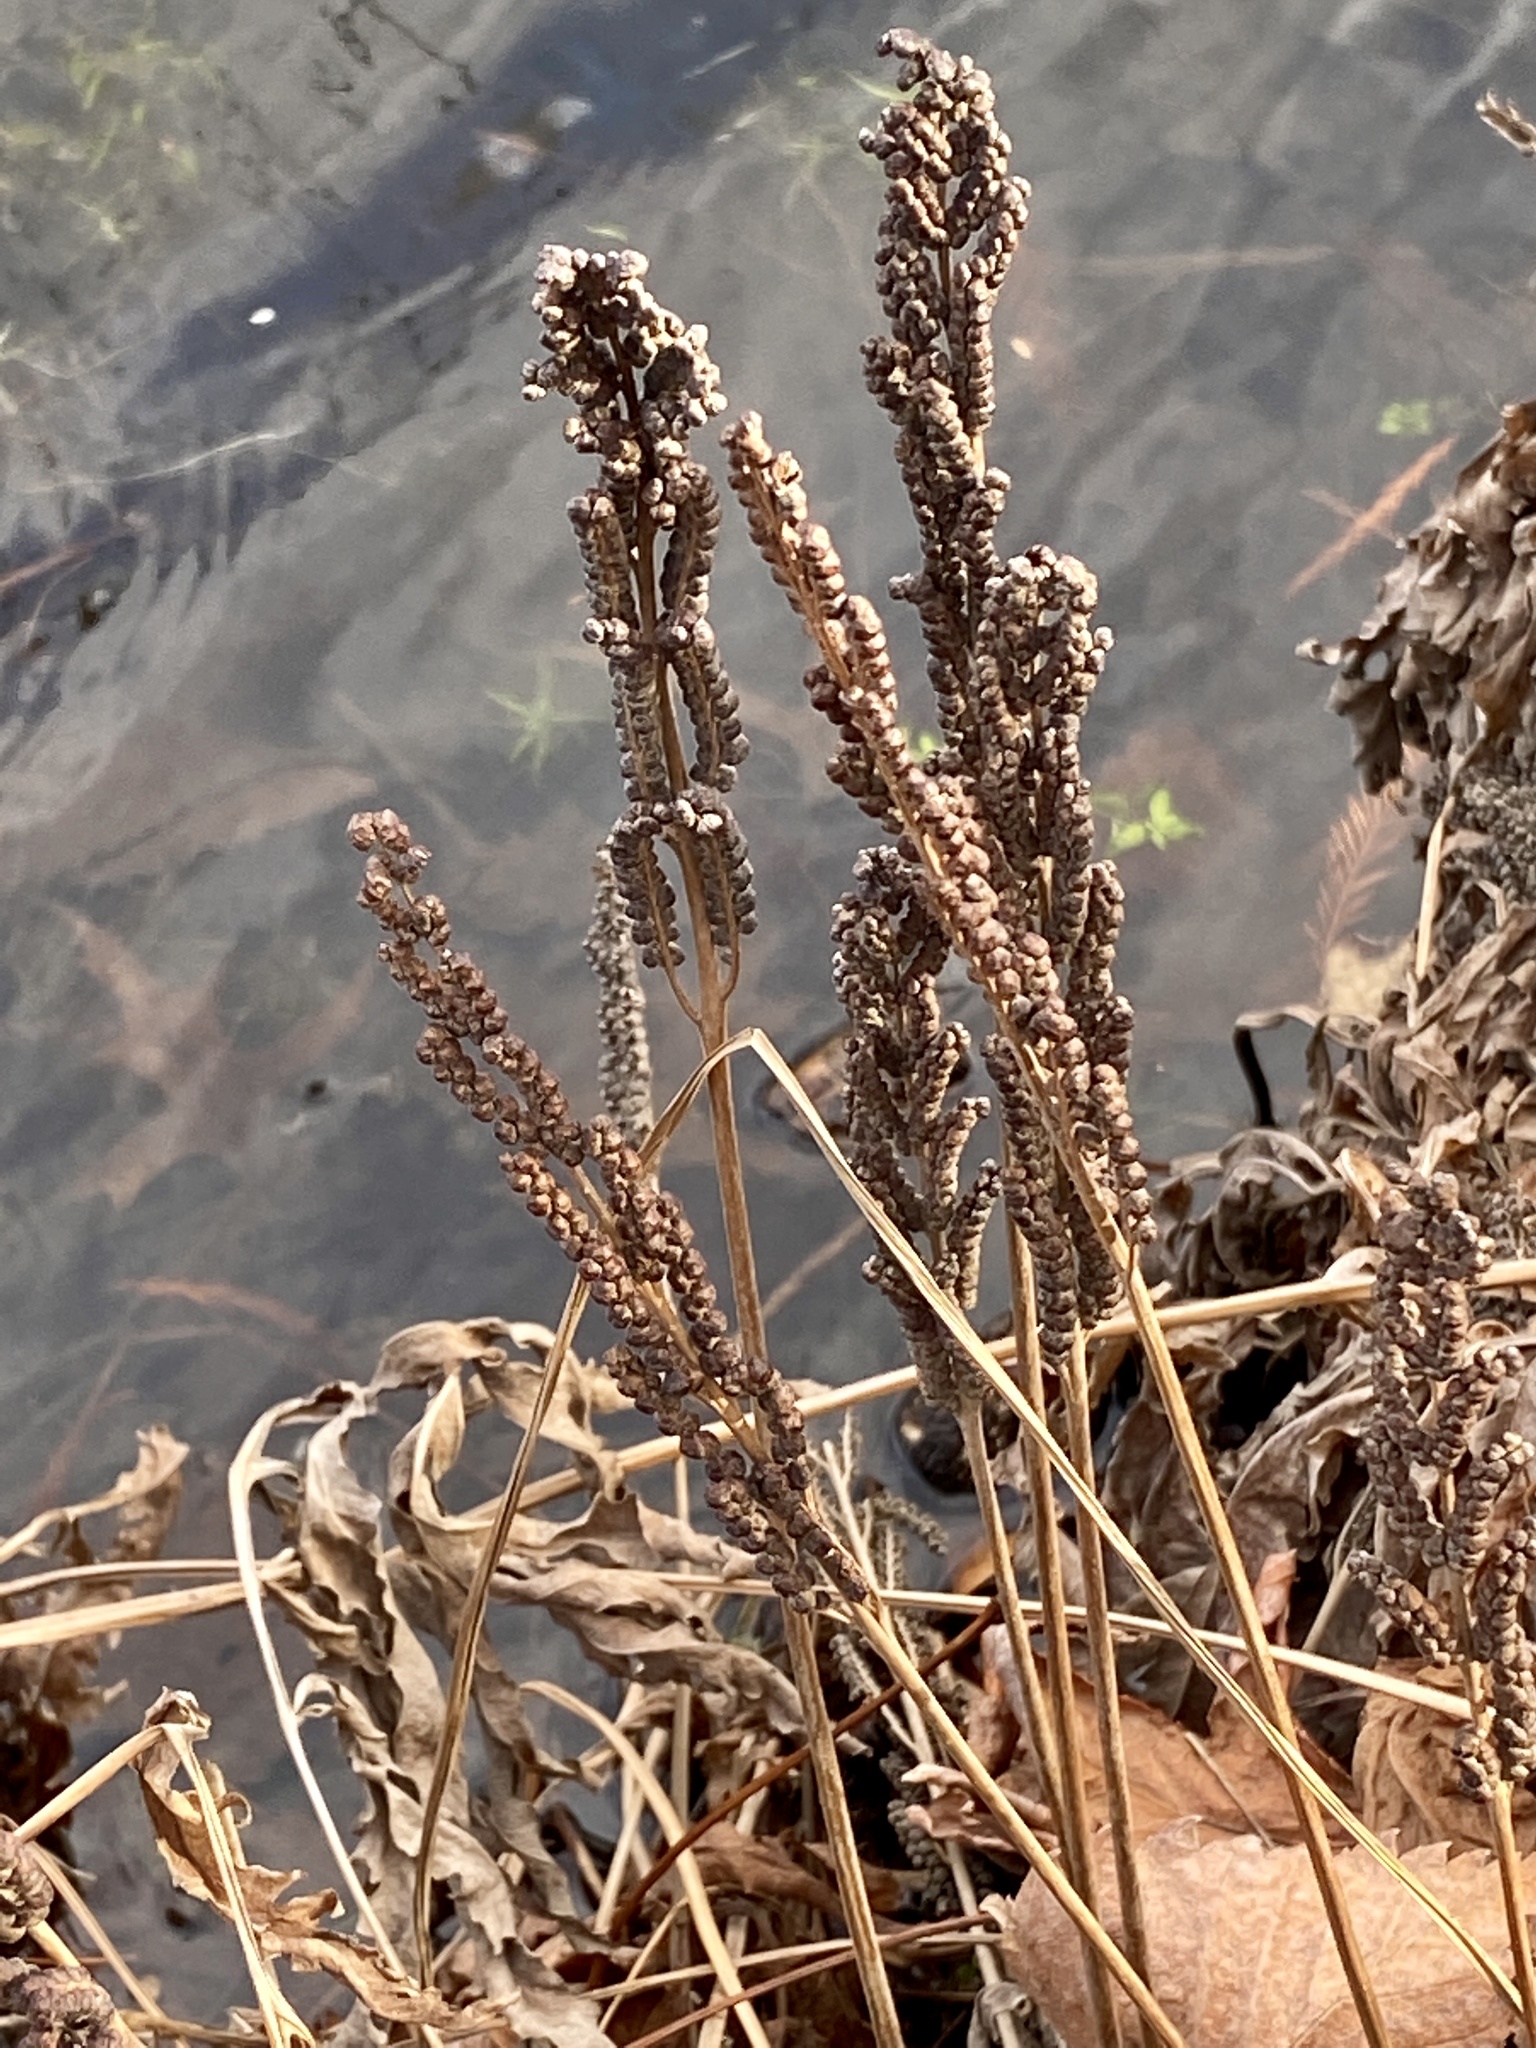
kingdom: Plantae
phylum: Tracheophyta
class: Polypodiopsida
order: Polypodiales
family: Onocleaceae
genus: Onoclea
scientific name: Onoclea sensibilis
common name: Sensitive fern
